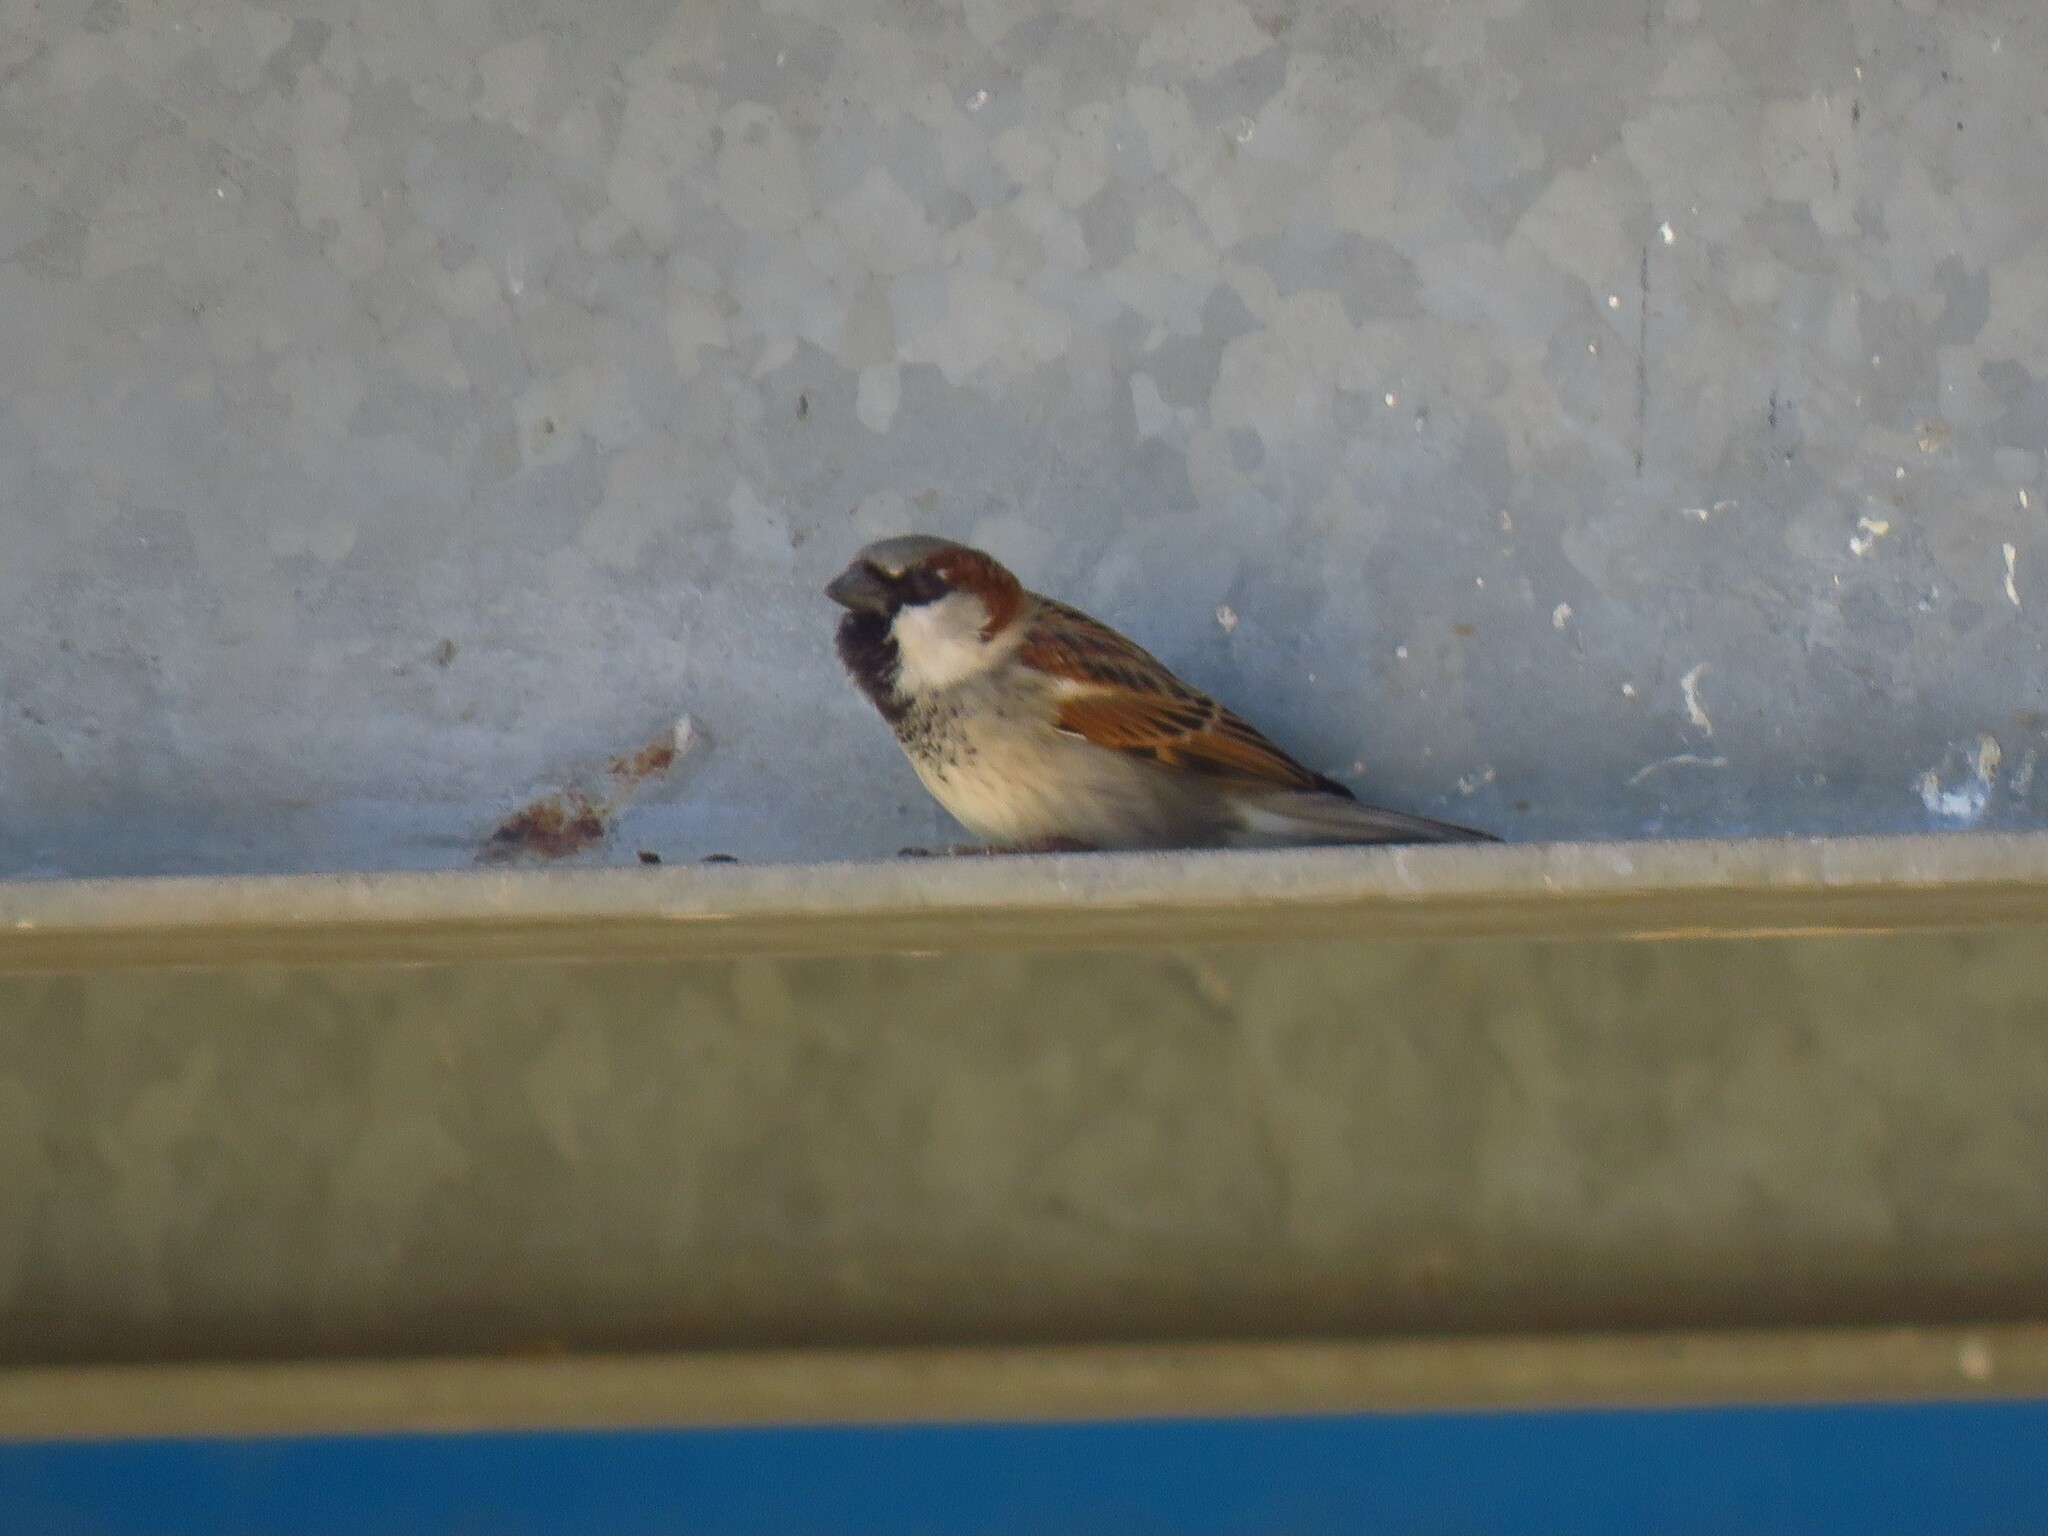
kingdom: Animalia
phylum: Chordata
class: Aves
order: Passeriformes
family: Passeridae
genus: Passer
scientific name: Passer domesticus
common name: House sparrow
